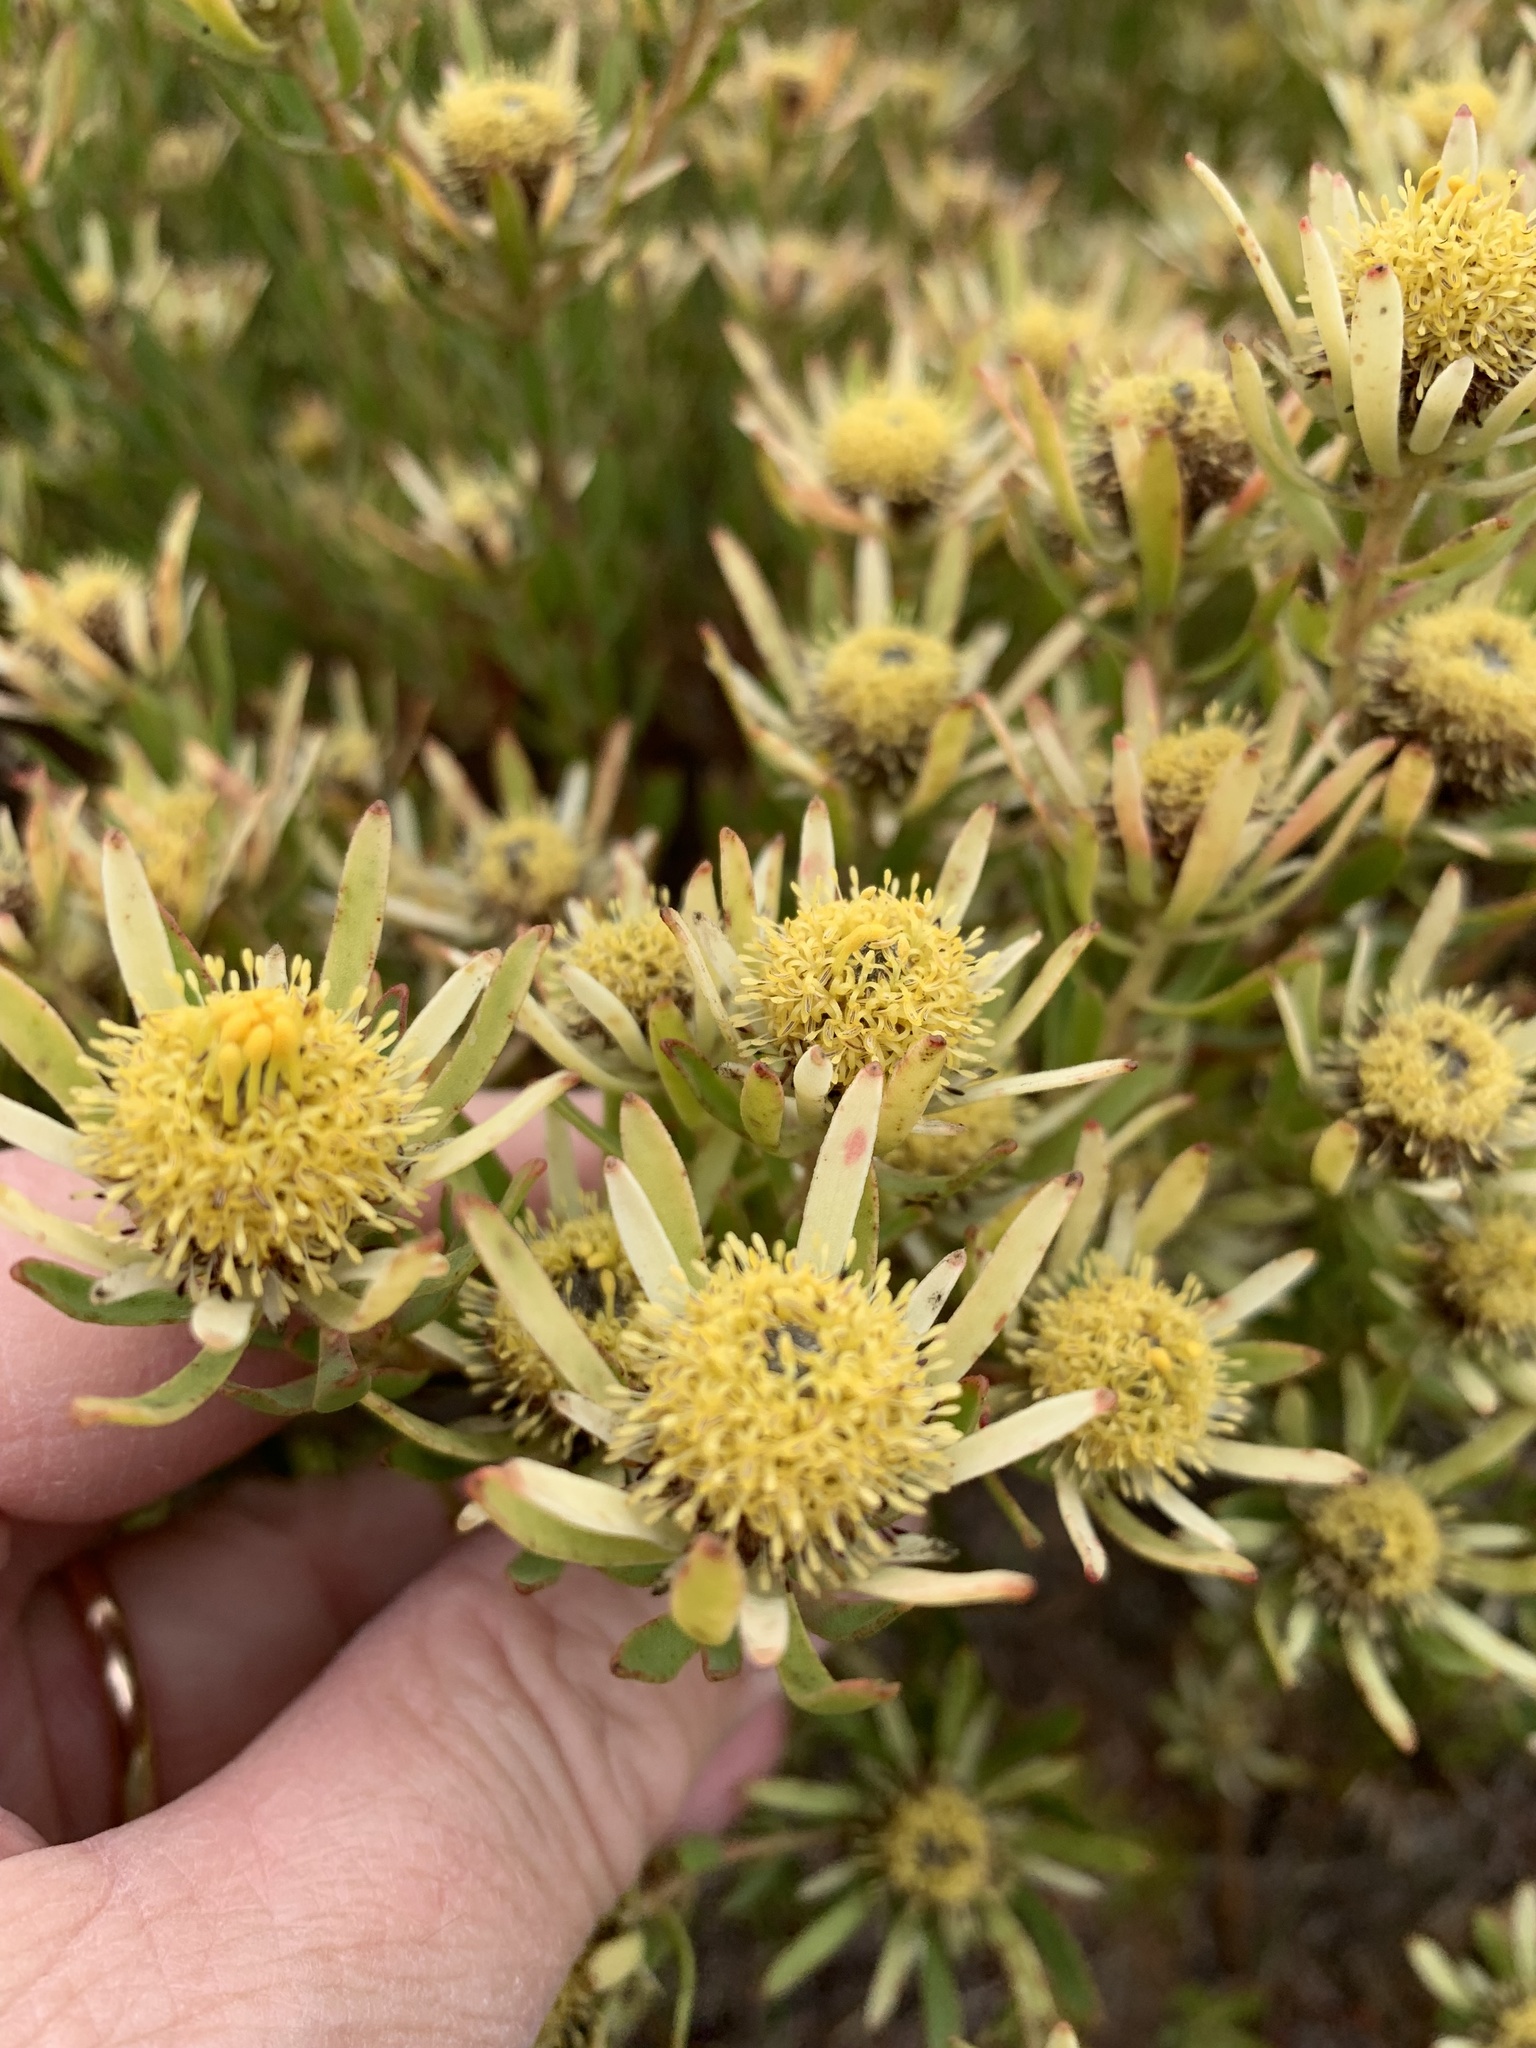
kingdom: Plantae
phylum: Tracheophyta
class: Magnoliopsida
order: Proteales
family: Proteaceae
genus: Leucadendron
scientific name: Leucadendron modestum
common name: Rough-leaf conebush
